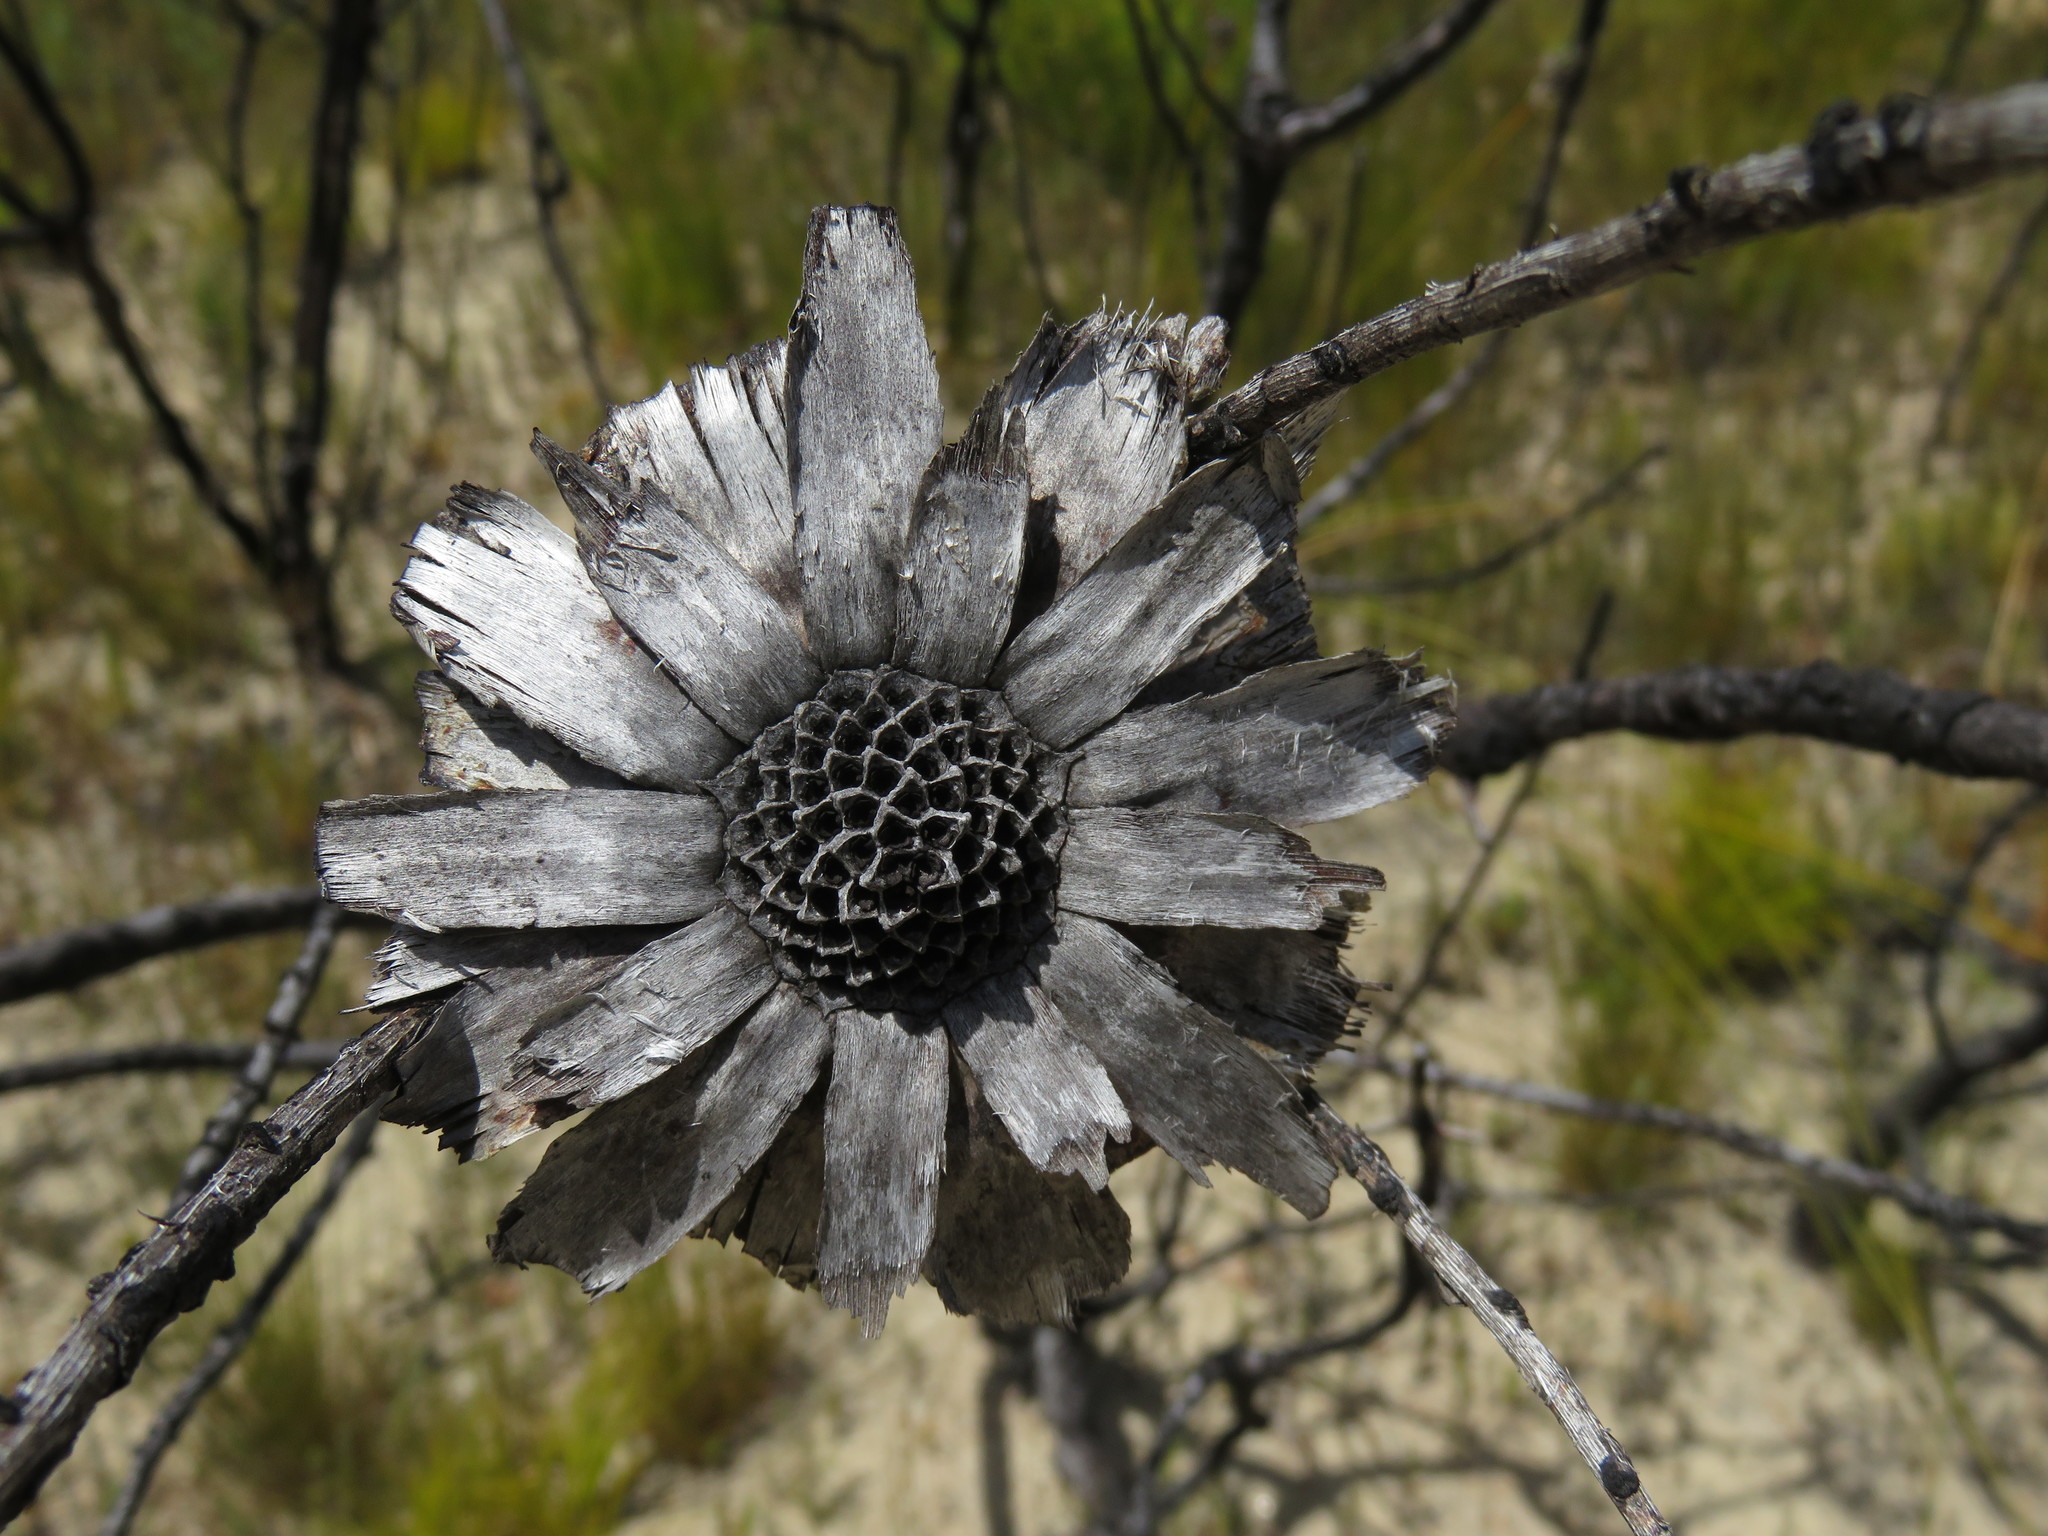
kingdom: Plantae
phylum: Tracheophyta
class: Magnoliopsida
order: Proteales
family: Proteaceae
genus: Protea
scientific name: Protea repens
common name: Sugarbush
